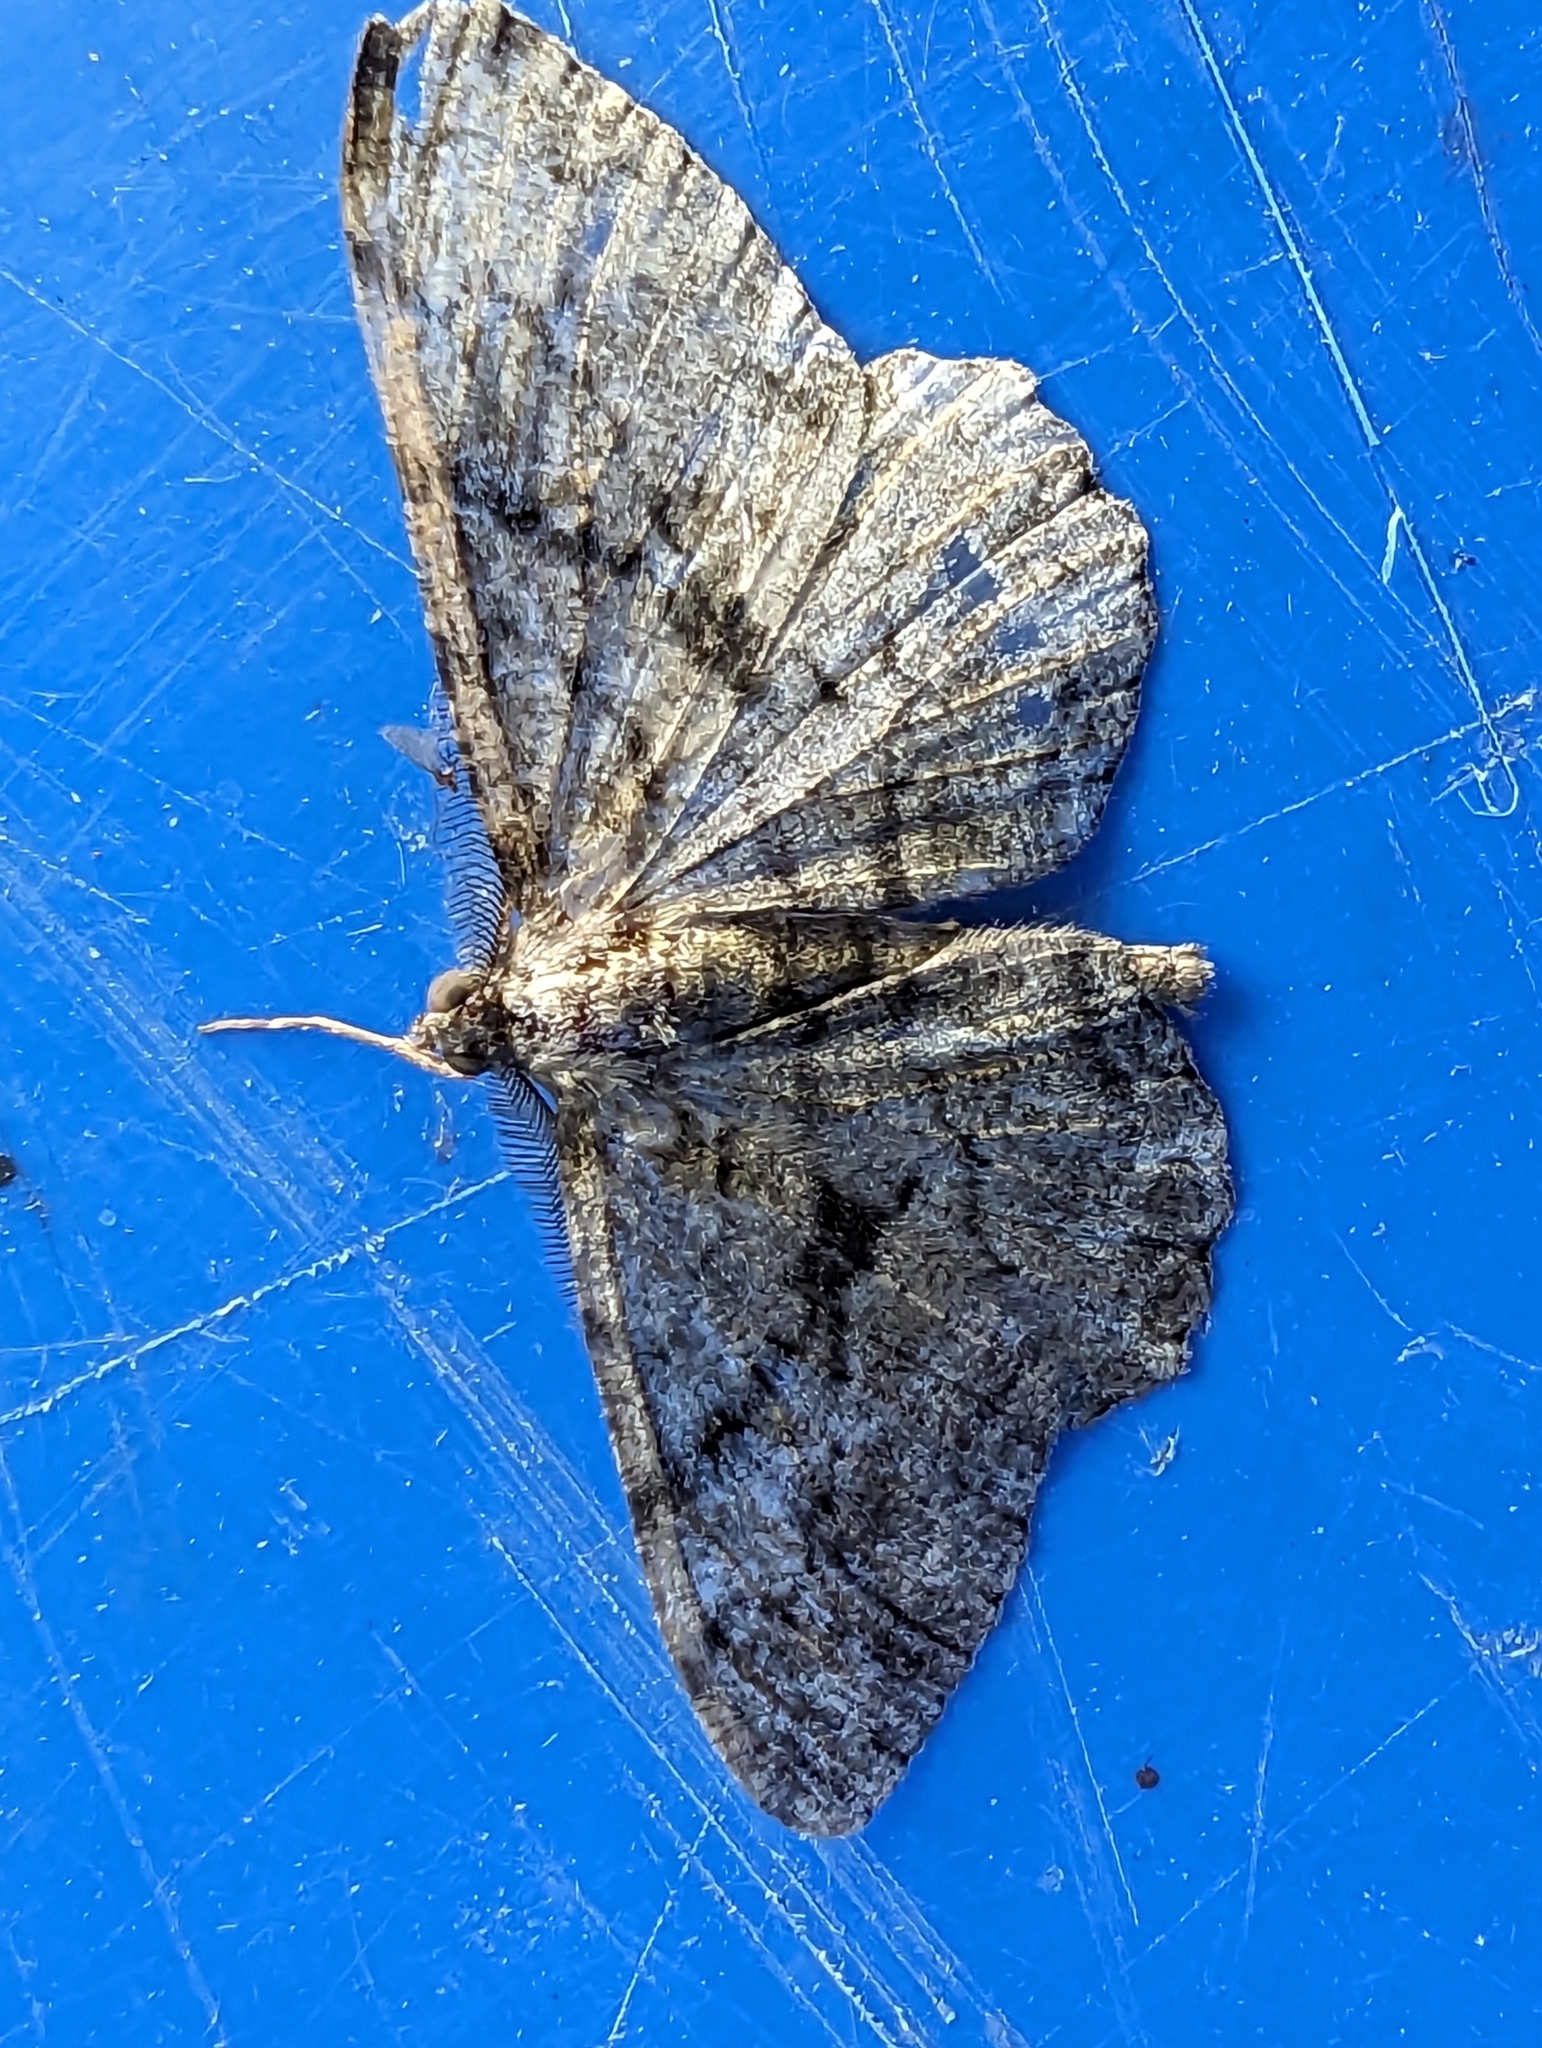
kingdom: Animalia
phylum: Arthropoda
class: Insecta
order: Lepidoptera
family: Geometridae
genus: Peribatodes
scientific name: Peribatodes rhomboidaria
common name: Willow beauty
